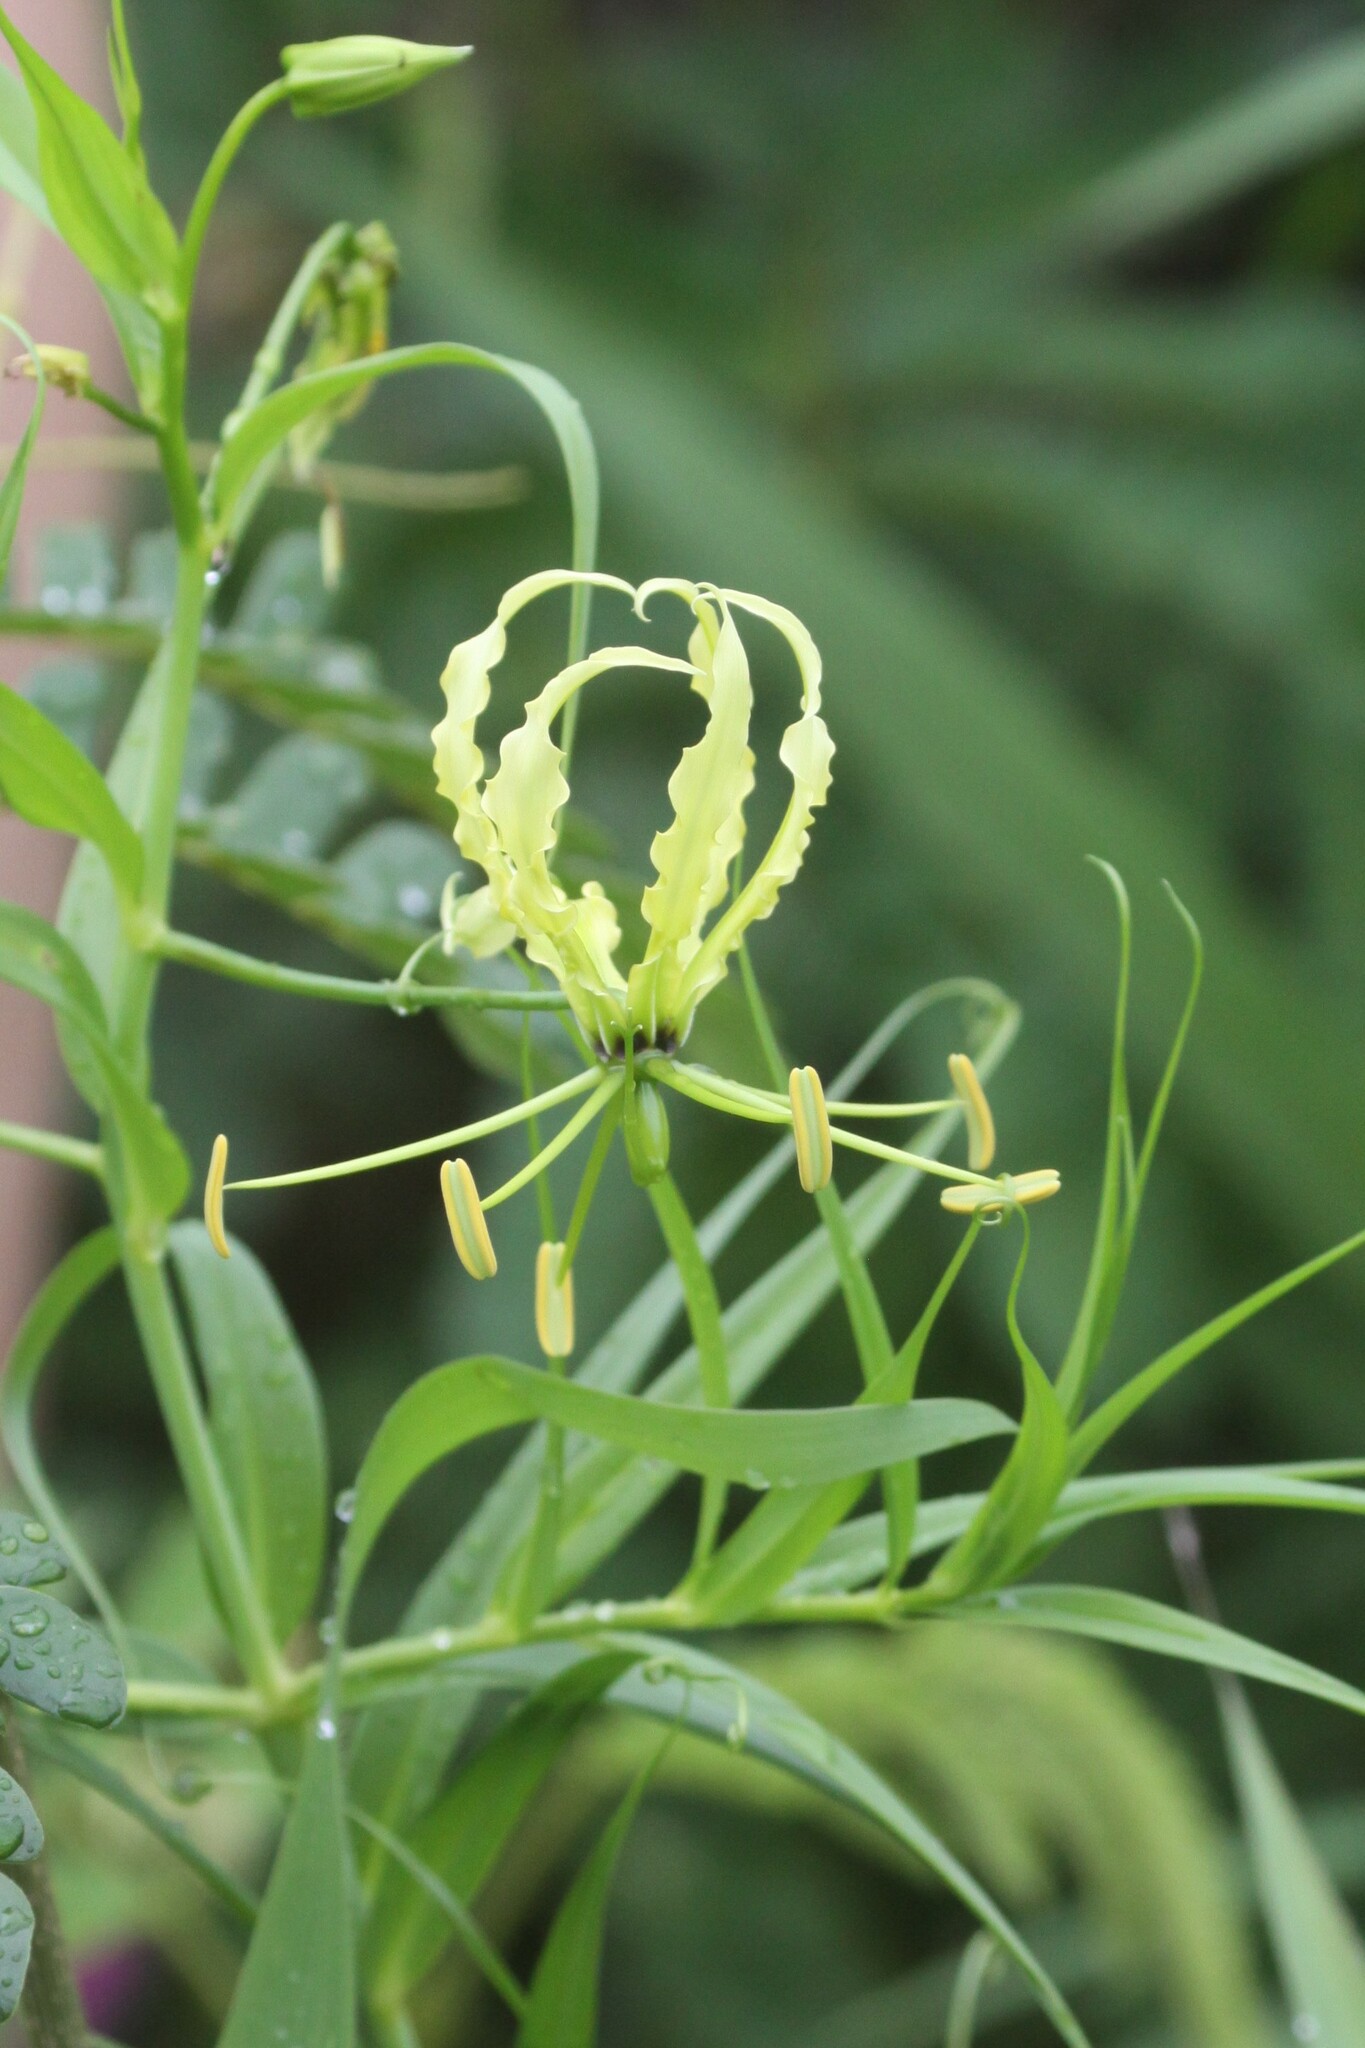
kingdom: Plantae
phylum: Tracheophyta
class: Liliopsida
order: Liliales
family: Colchicaceae
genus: Gloriosa
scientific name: Gloriosa superba
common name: Flame lily
